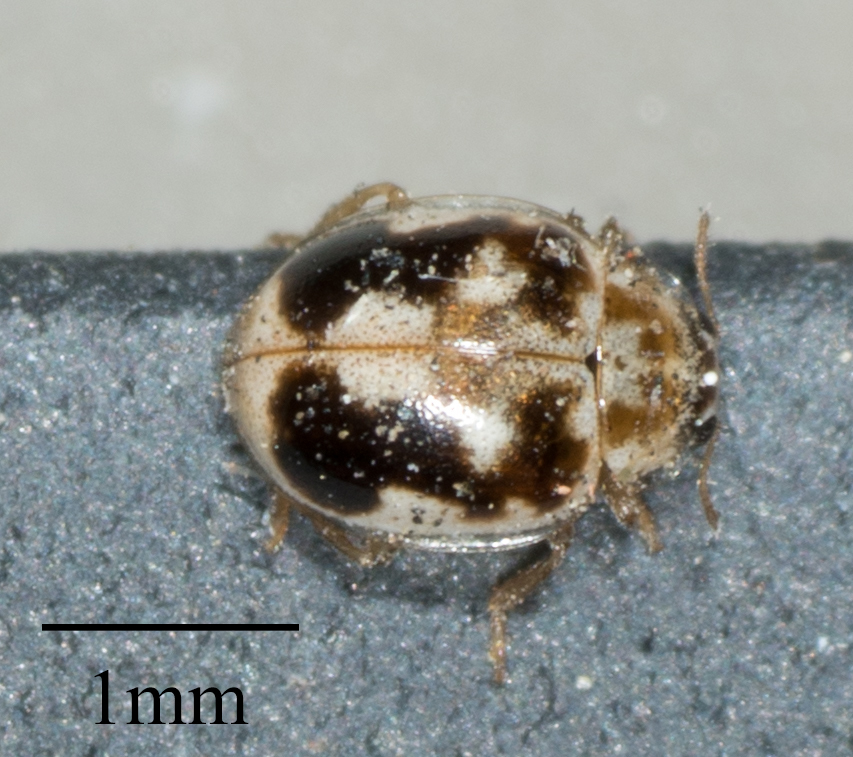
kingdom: Animalia
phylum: Arthropoda
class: Insecta
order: Coleoptera
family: Coccinellidae
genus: Psyllobora
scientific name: Psyllobora renifer
